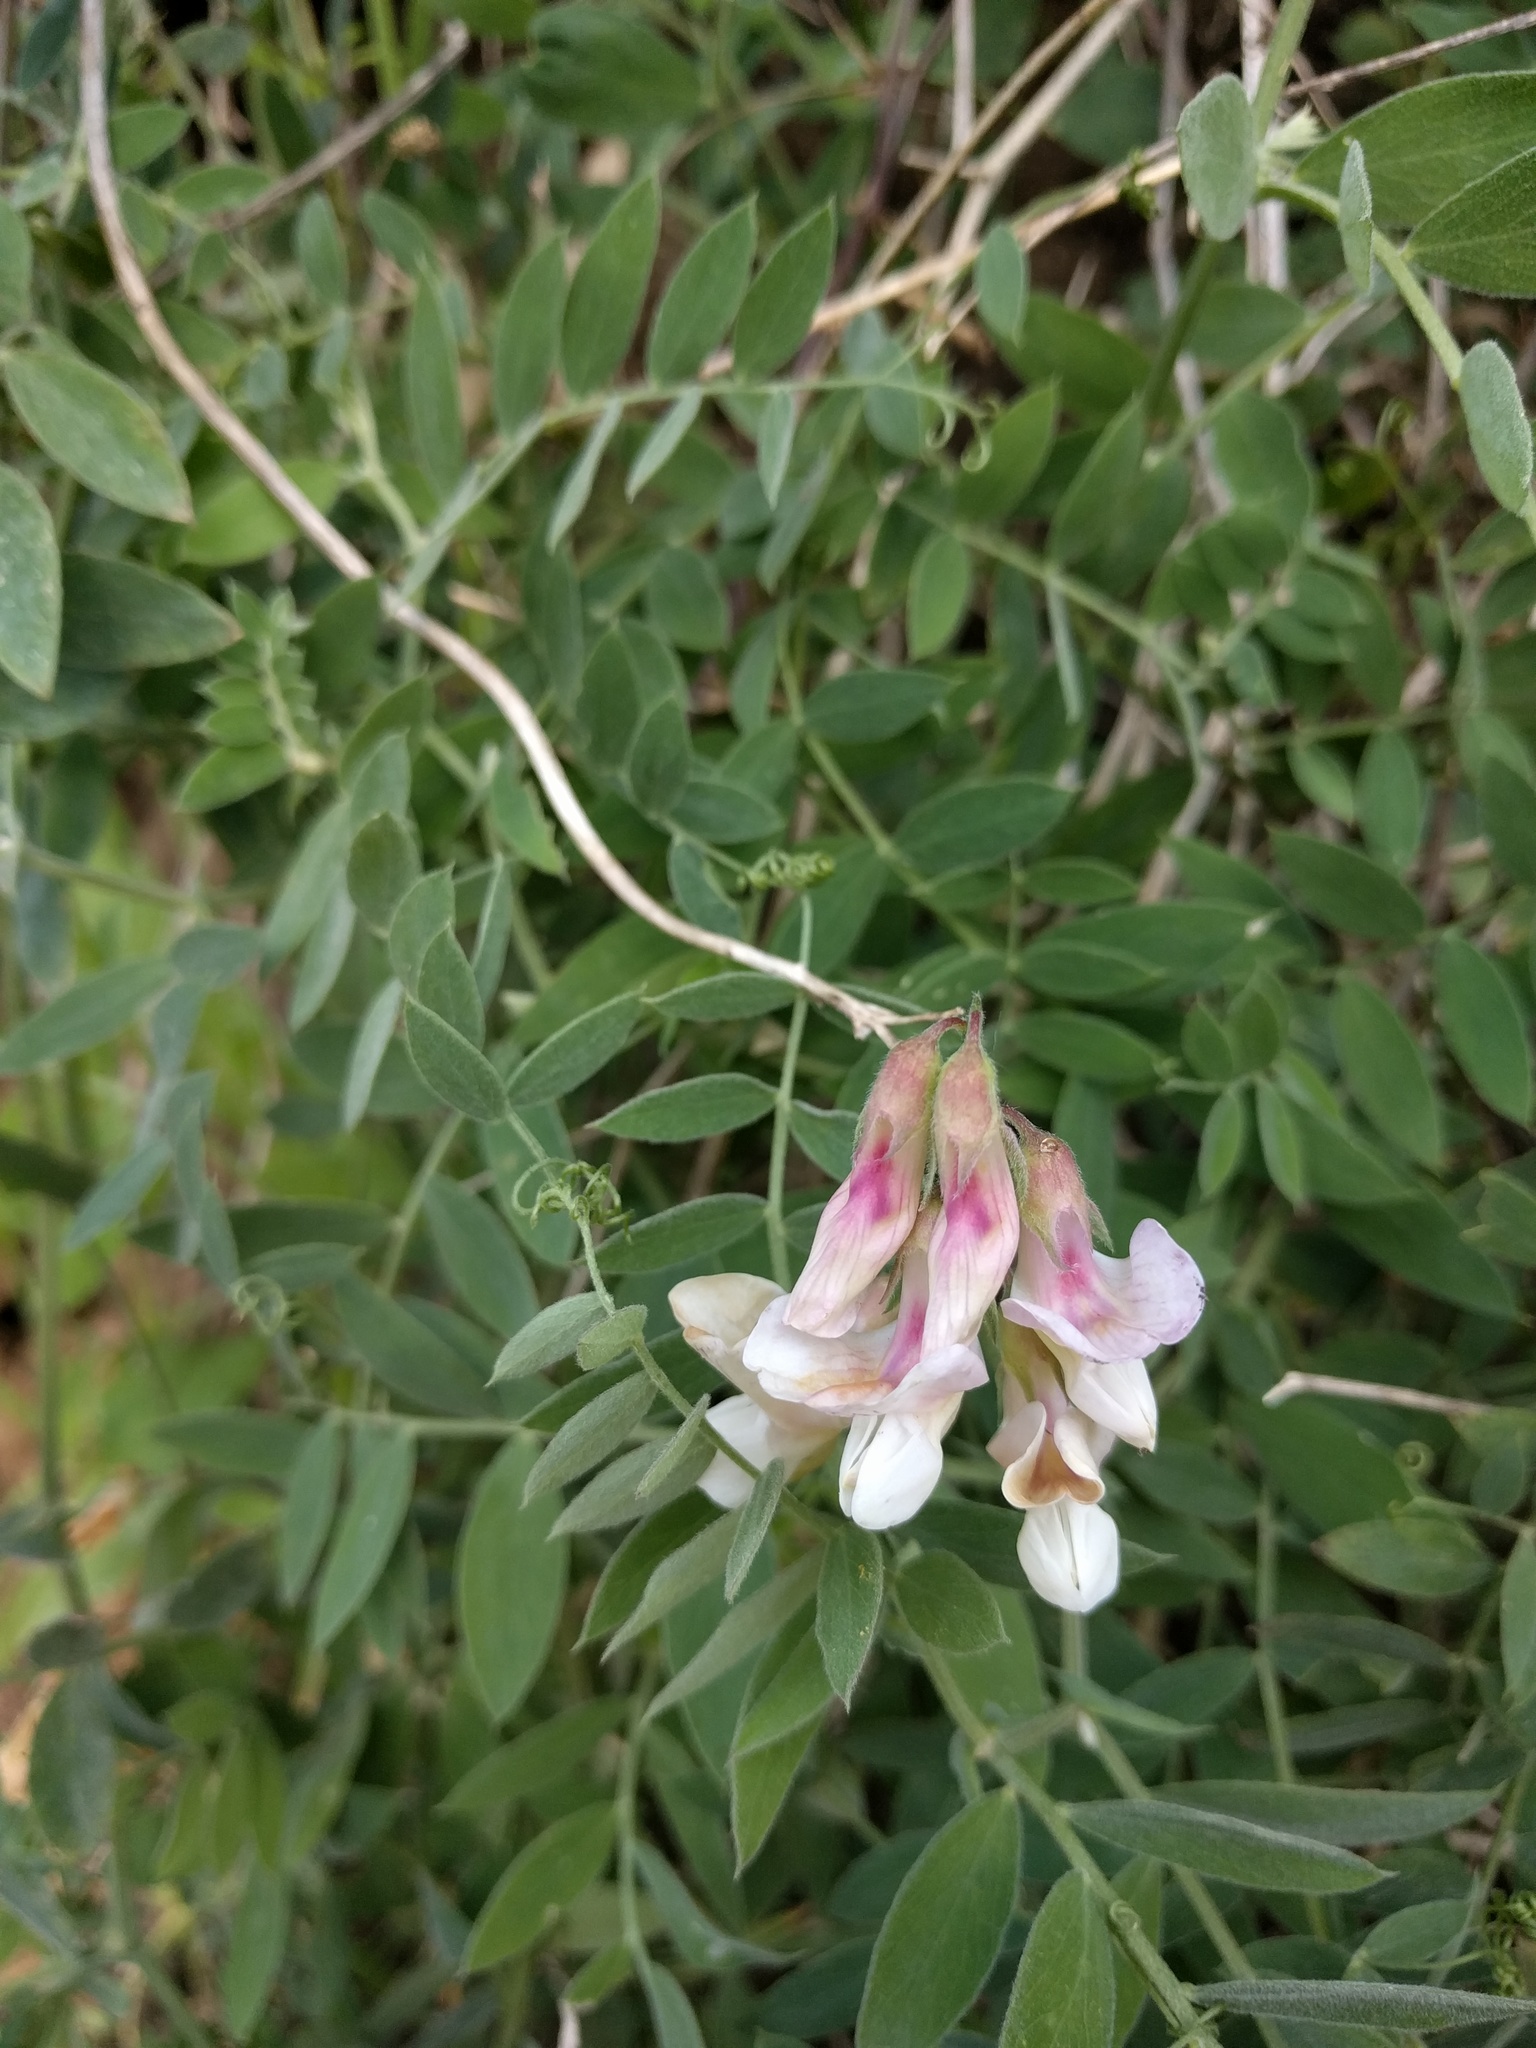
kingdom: Plantae
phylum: Tracheophyta
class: Magnoliopsida
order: Fabales
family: Fabaceae
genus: Lathyrus
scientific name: Lathyrus vestitus
